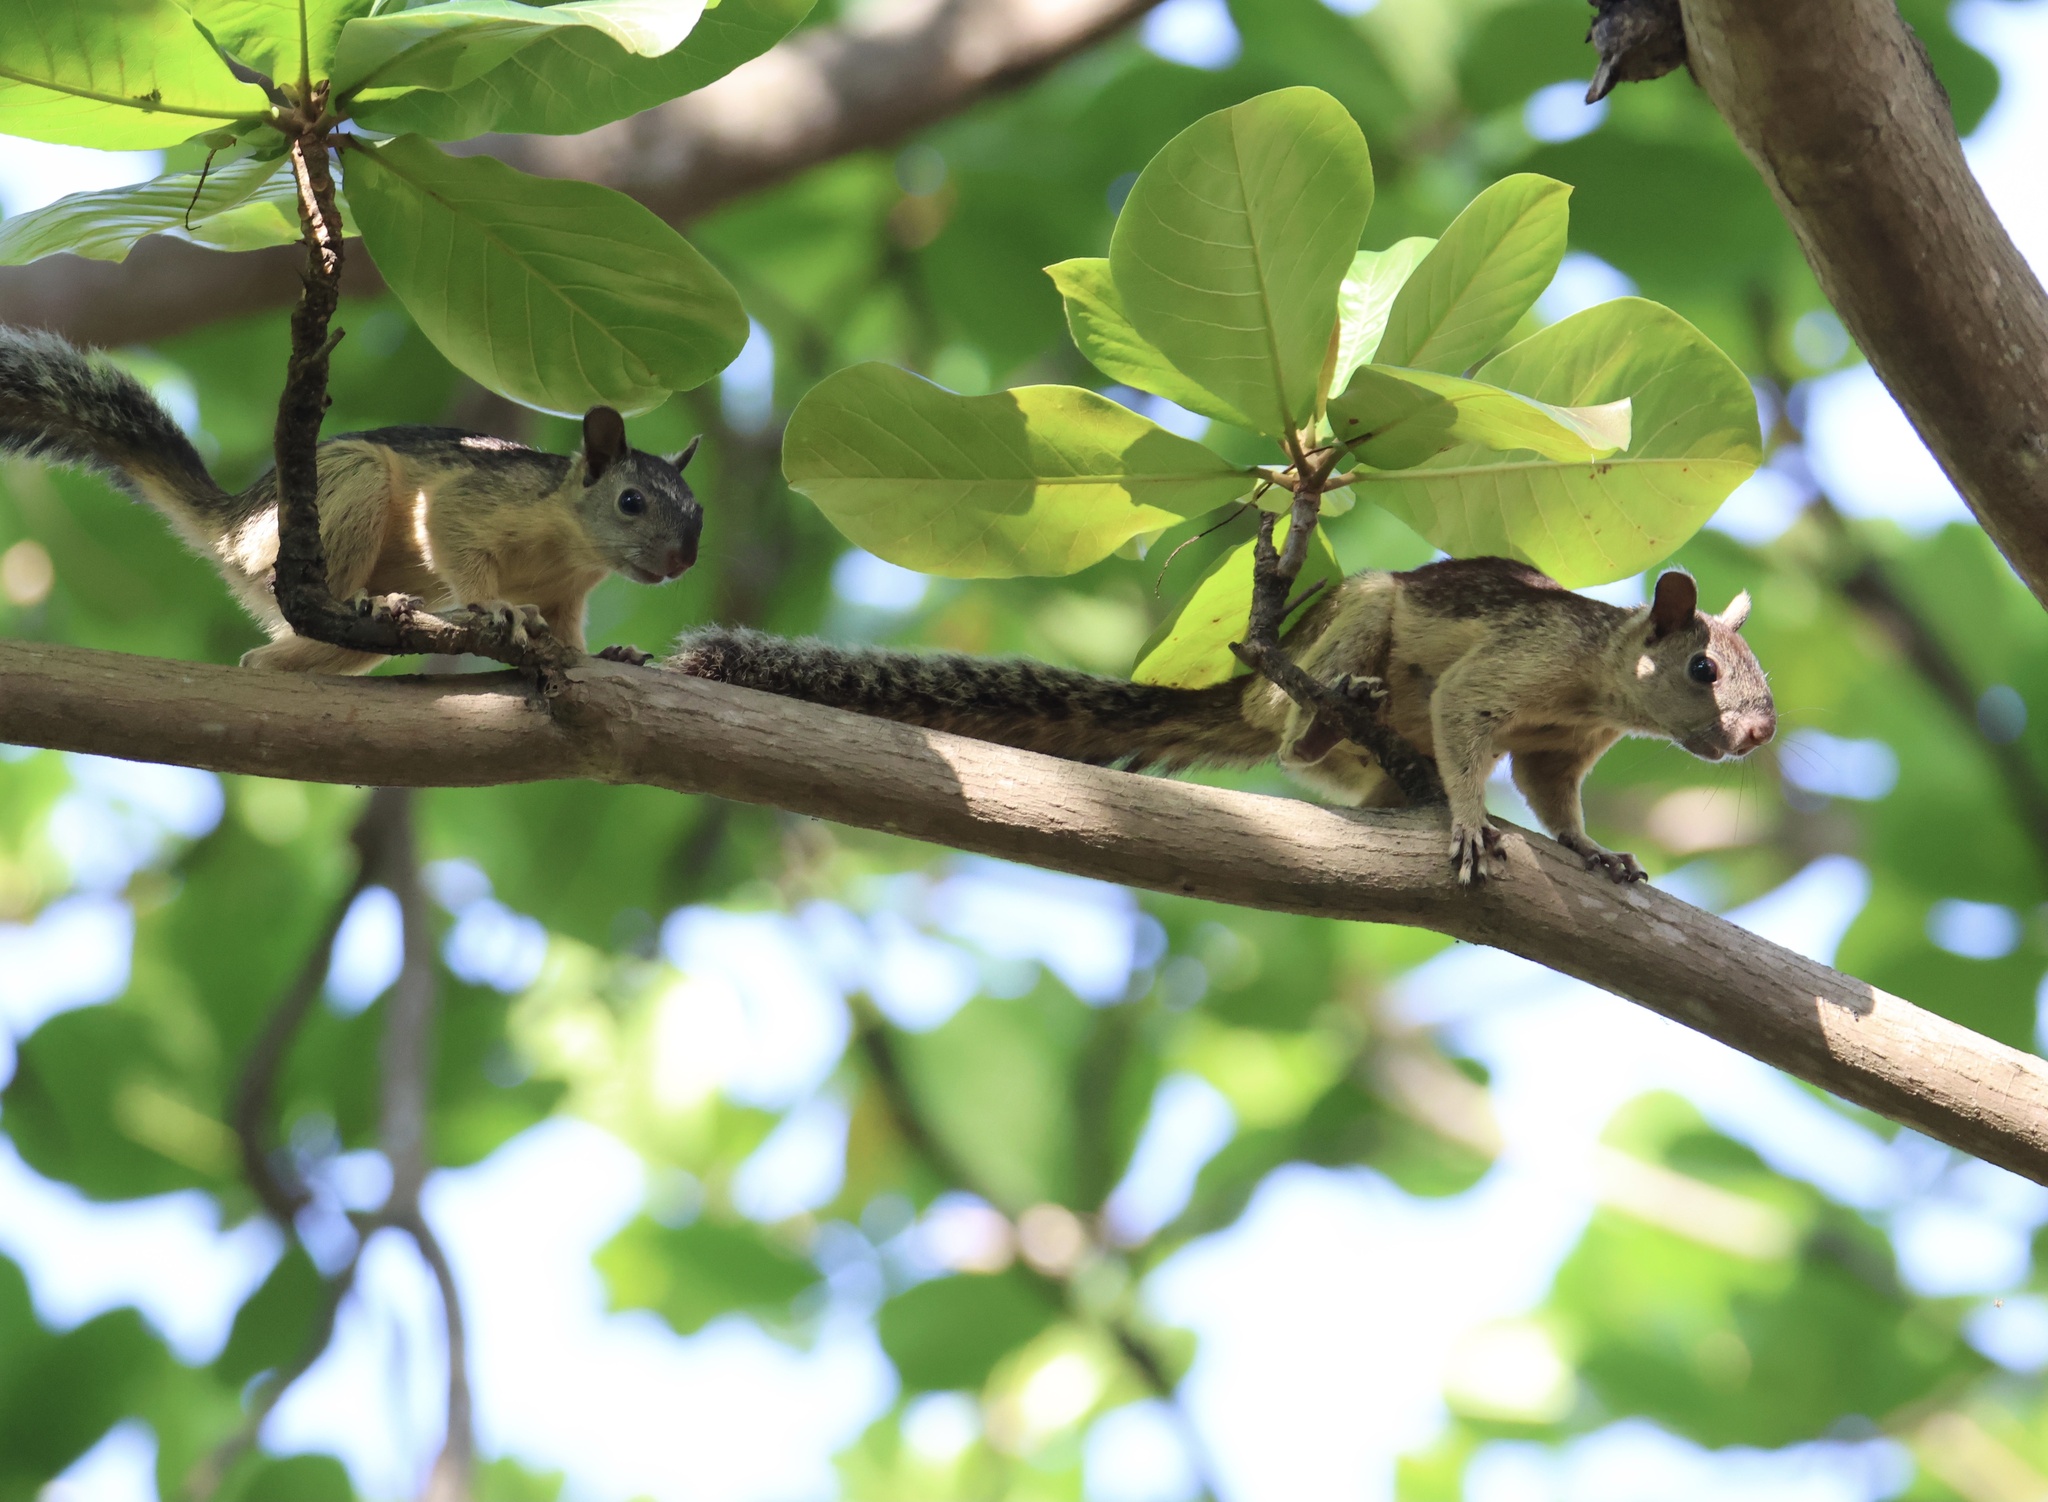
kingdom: Animalia
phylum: Chordata
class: Mammalia
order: Rodentia
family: Sciuridae
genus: Sciurus
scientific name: Sciurus variegatoides
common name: Variegated squirrel
